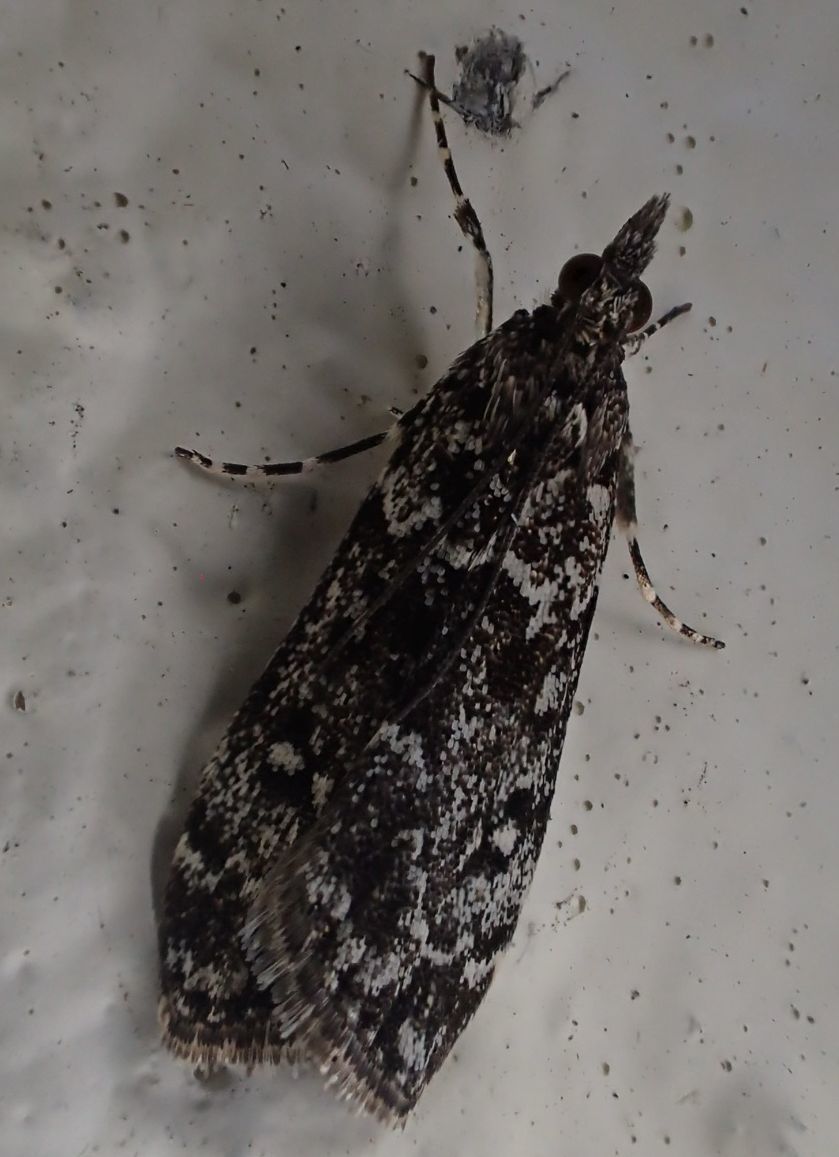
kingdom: Animalia
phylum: Arthropoda
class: Insecta
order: Lepidoptera
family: Crambidae
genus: Eudonia
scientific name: Eudonia philerga
